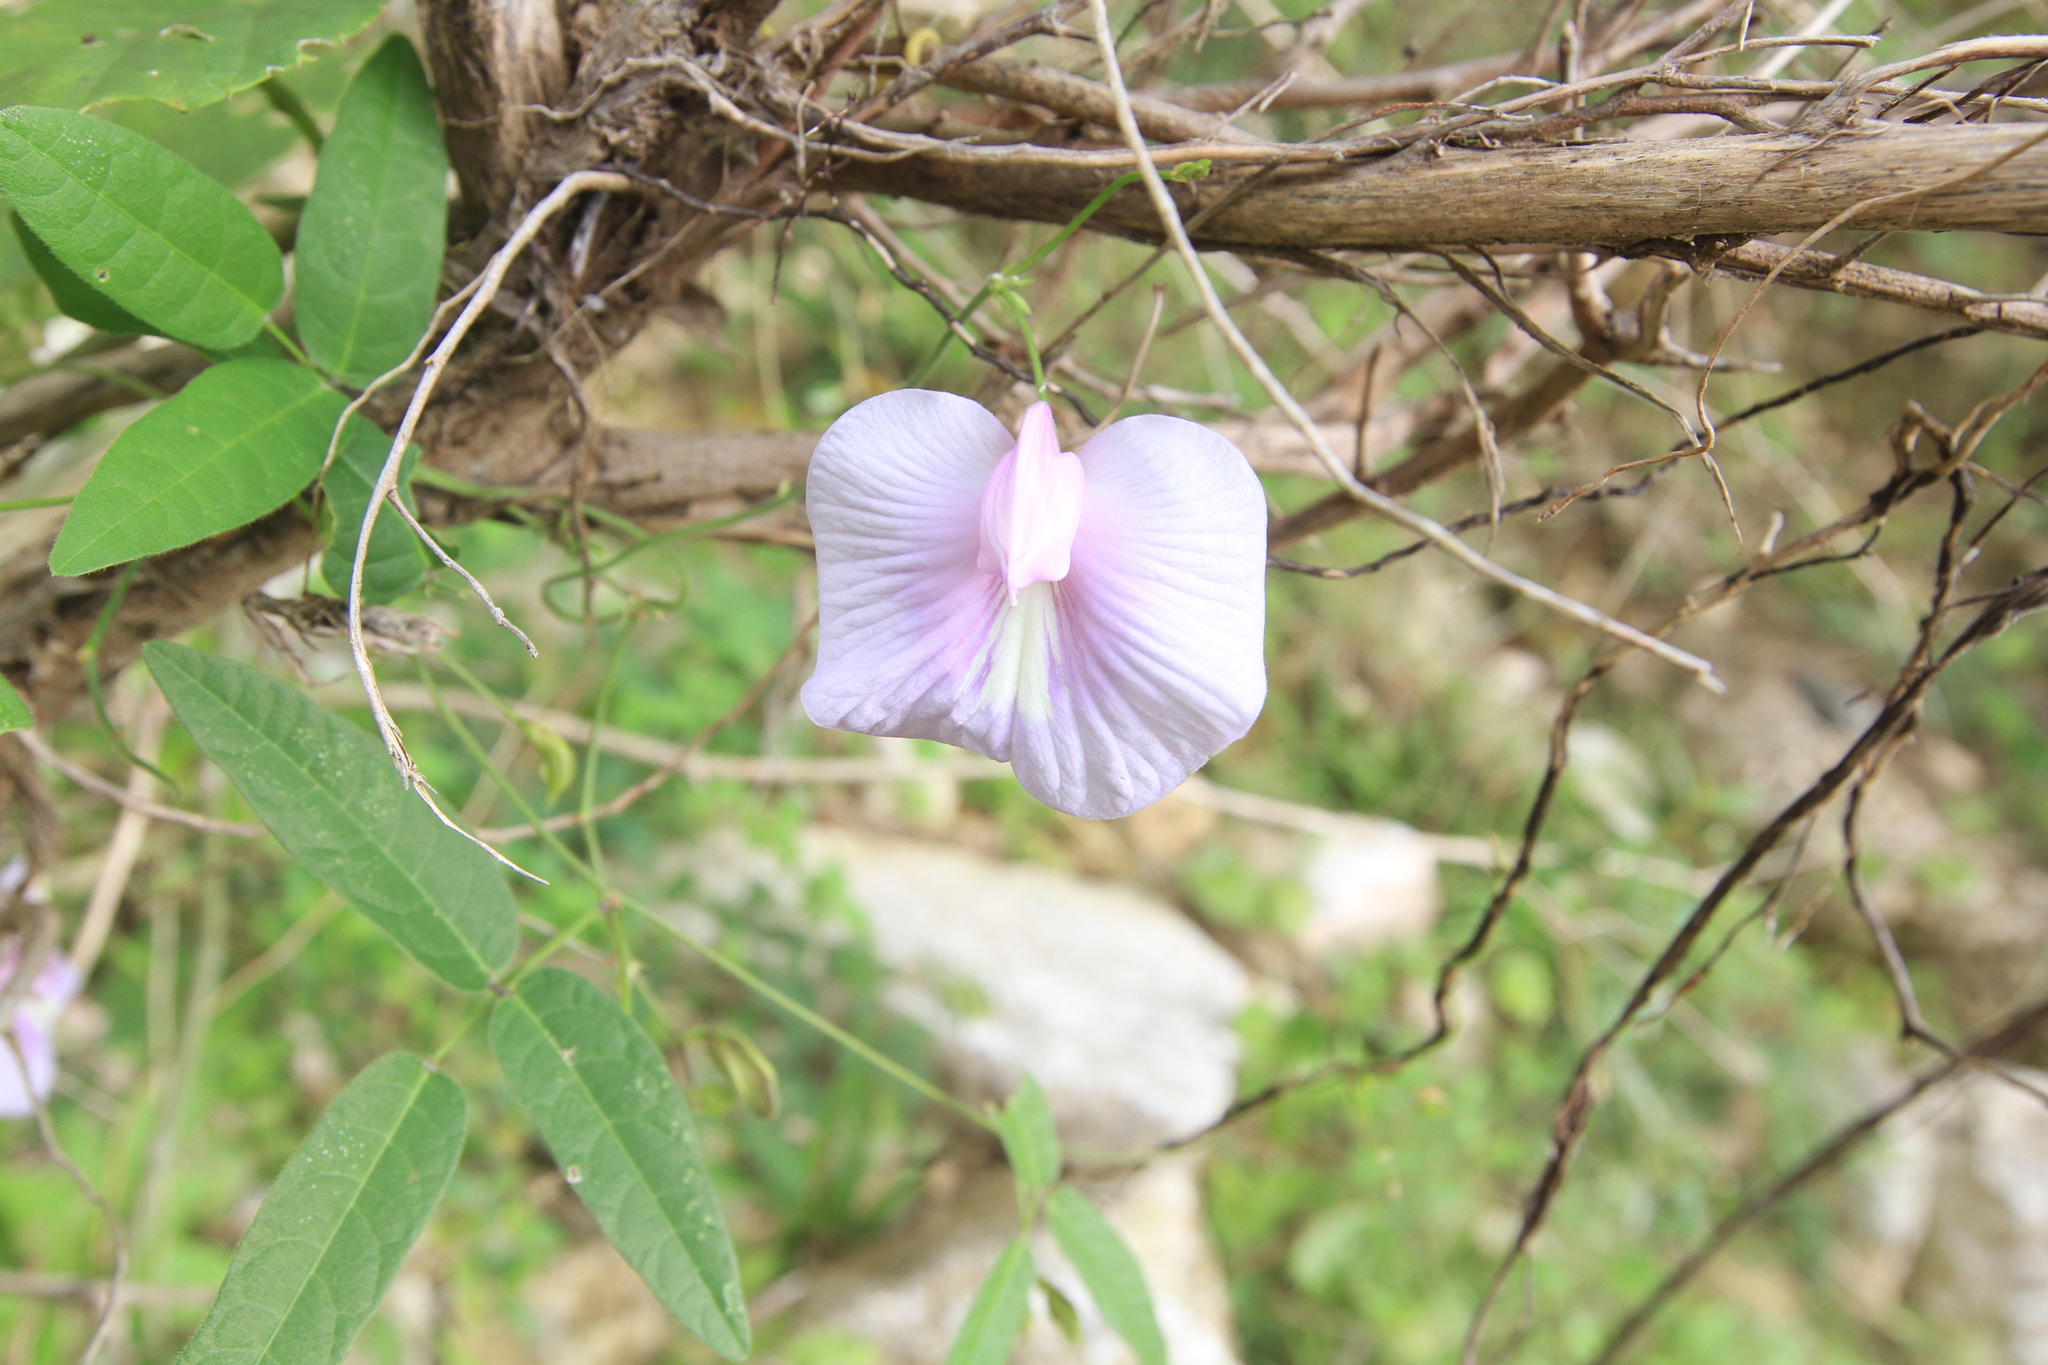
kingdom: Plantae
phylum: Tracheophyta
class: Magnoliopsida
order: Fabales
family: Fabaceae
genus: Centrosema
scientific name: Centrosema virginianum
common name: Butterfly-pea
